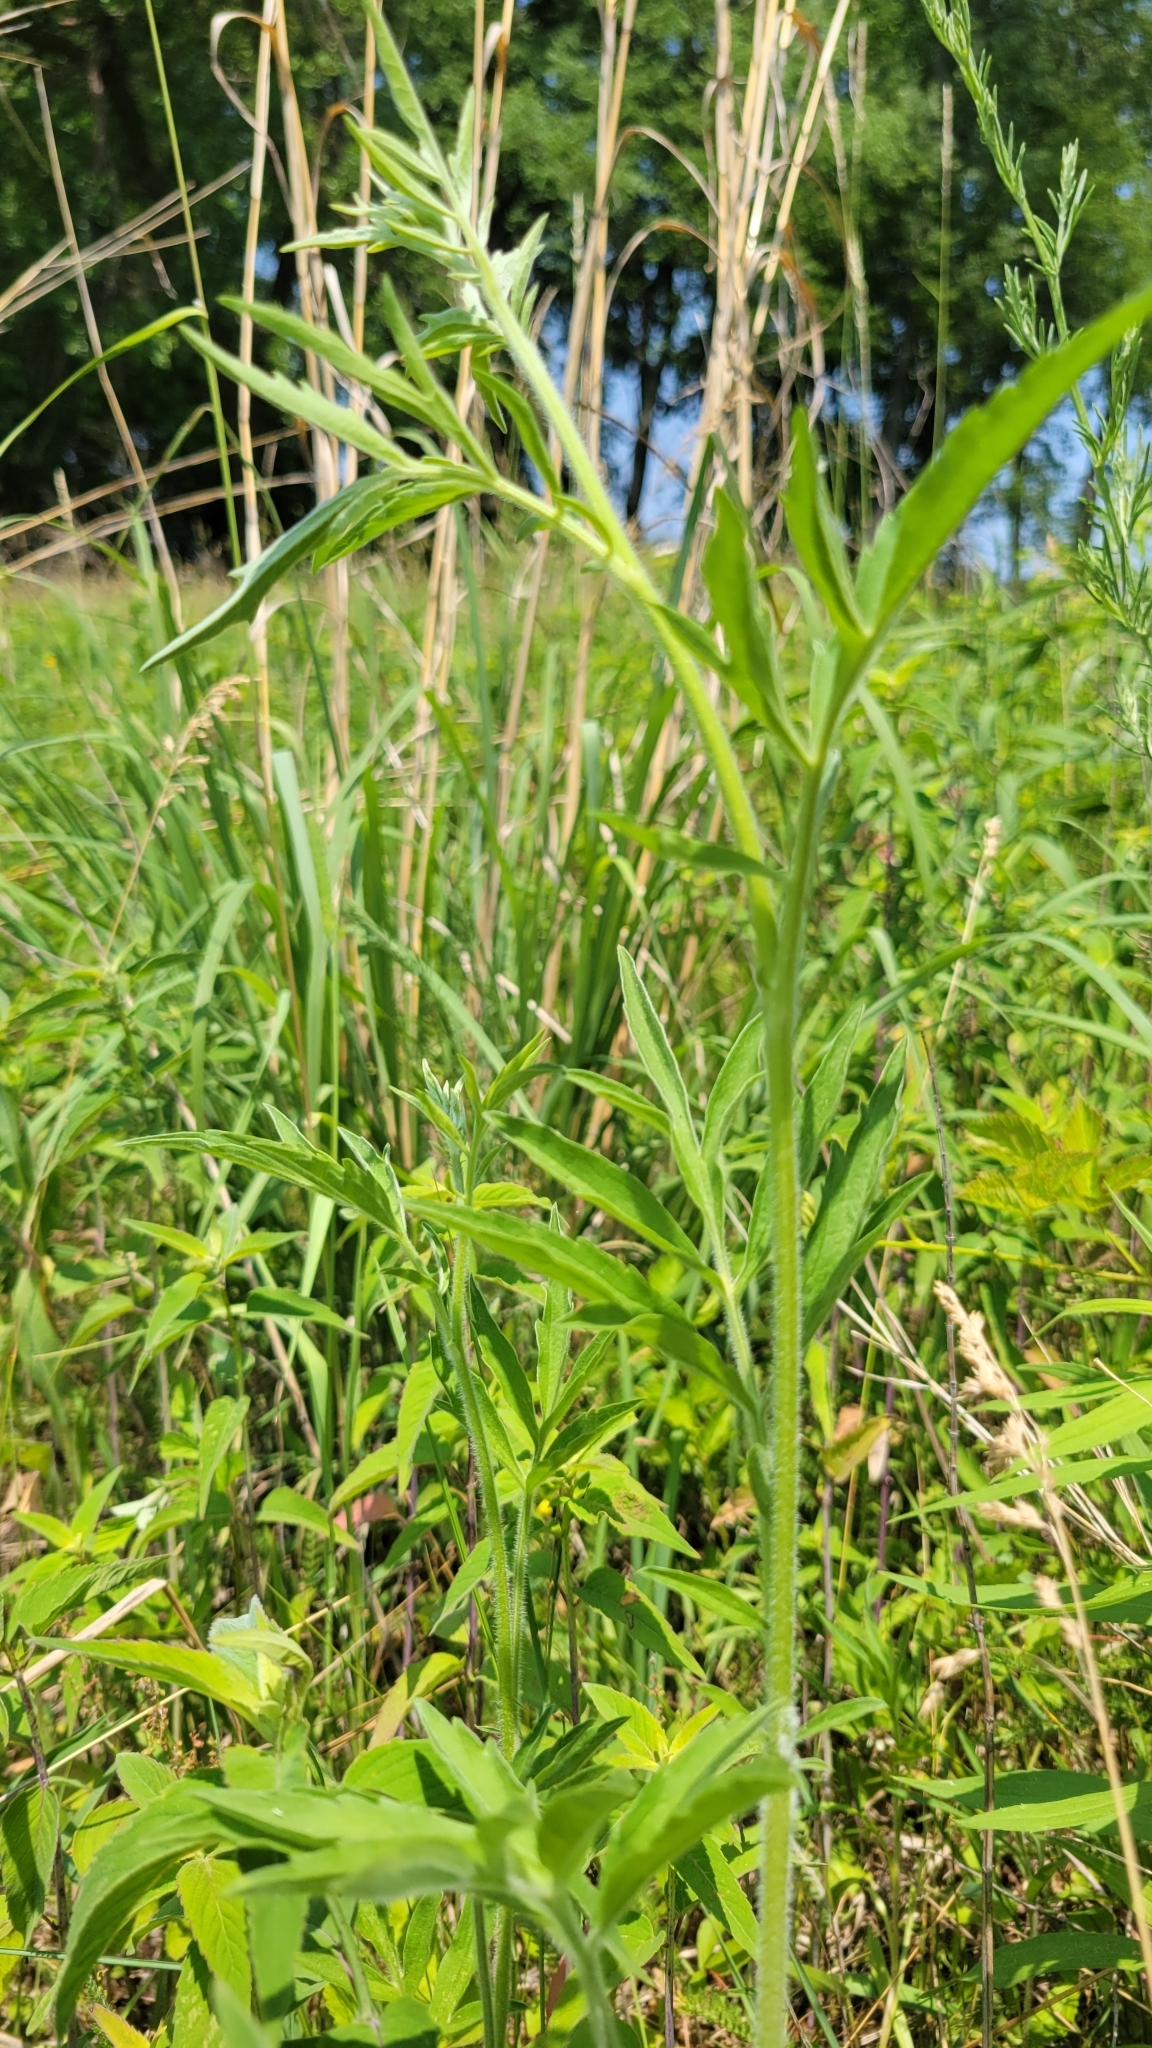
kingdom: Plantae
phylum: Tracheophyta
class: Magnoliopsida
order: Asterales
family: Asteraceae
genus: Ratibida
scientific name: Ratibida pinnata
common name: Drooping prairie-coneflower
